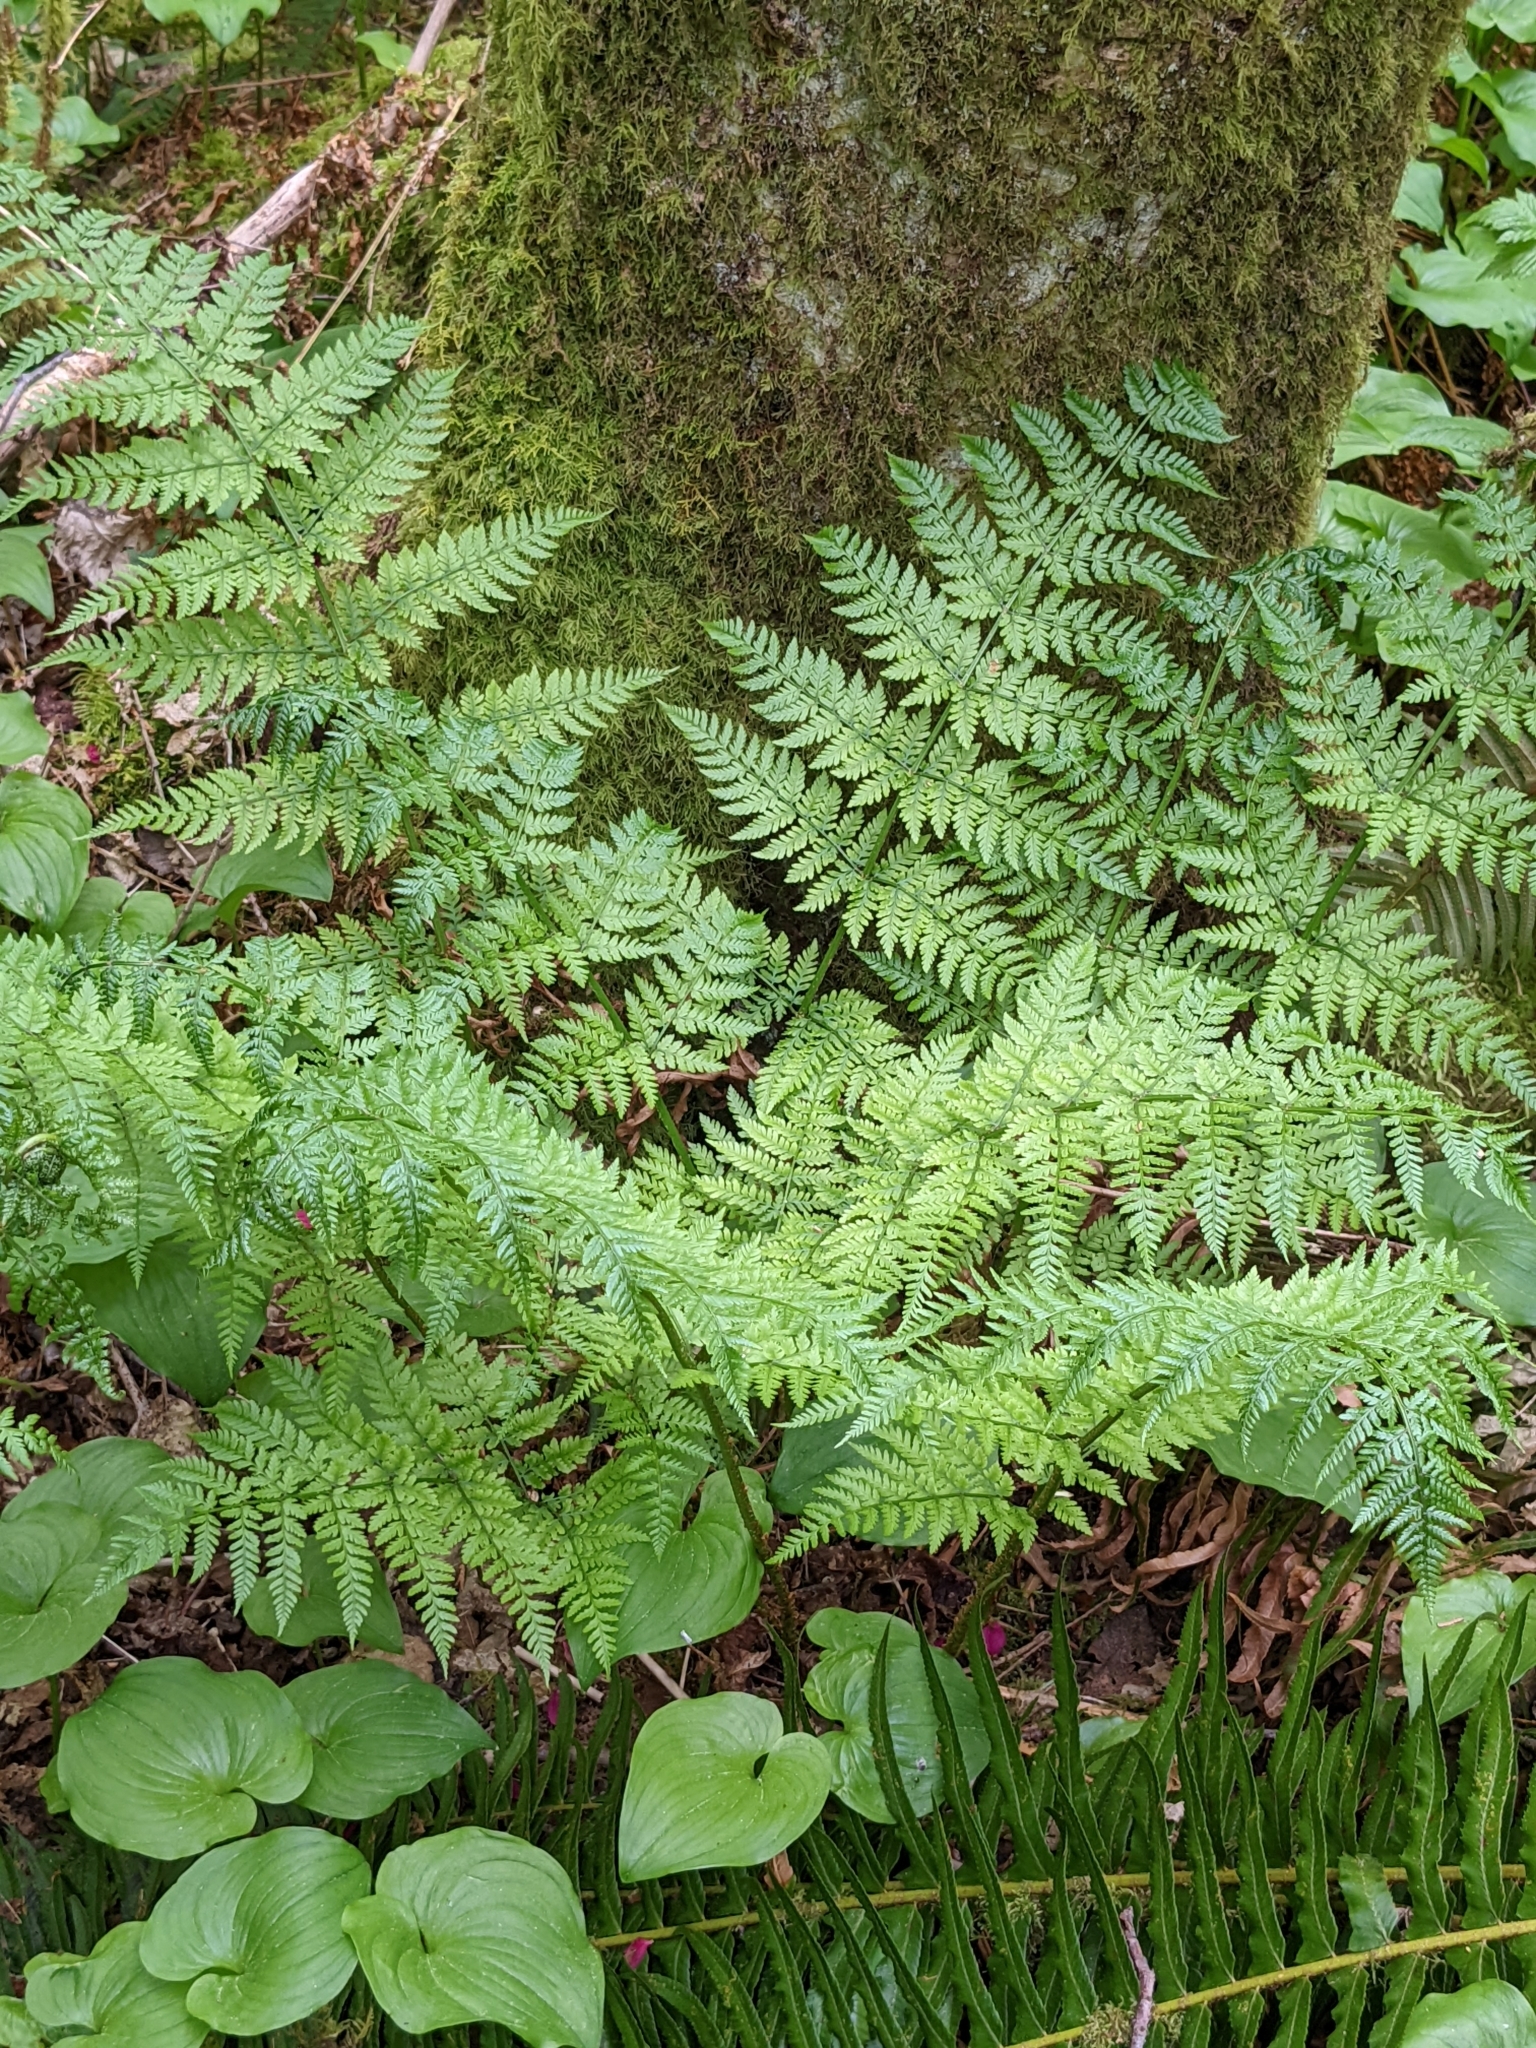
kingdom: Plantae
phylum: Tracheophyta
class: Polypodiopsida
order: Polypodiales
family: Dryopteridaceae
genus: Dryopteris
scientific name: Dryopteris expansa
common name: Northern buckler fern
